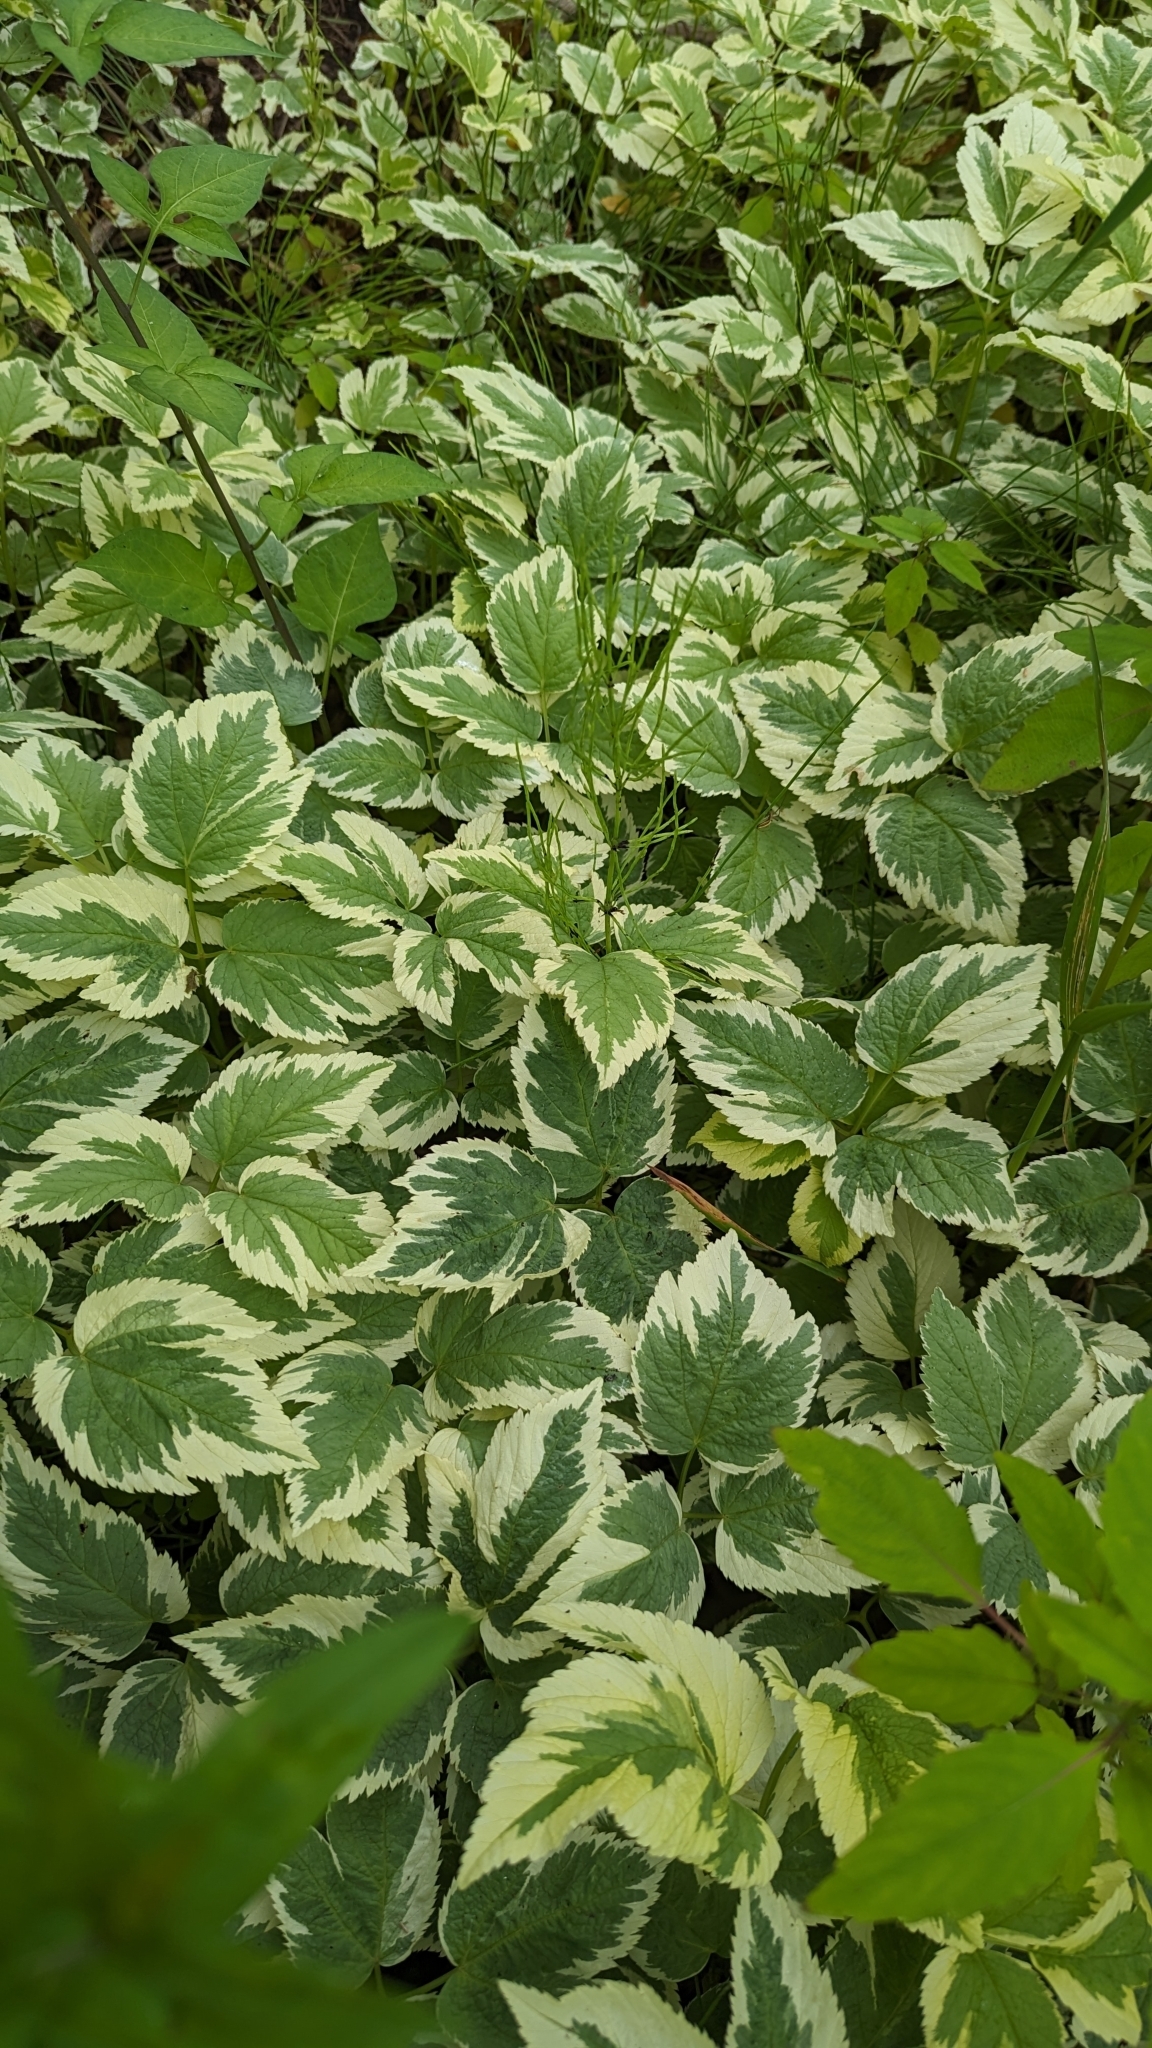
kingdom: Plantae
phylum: Tracheophyta
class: Magnoliopsida
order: Apiales
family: Apiaceae
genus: Aegopodium
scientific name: Aegopodium podagraria
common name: Ground-elder
